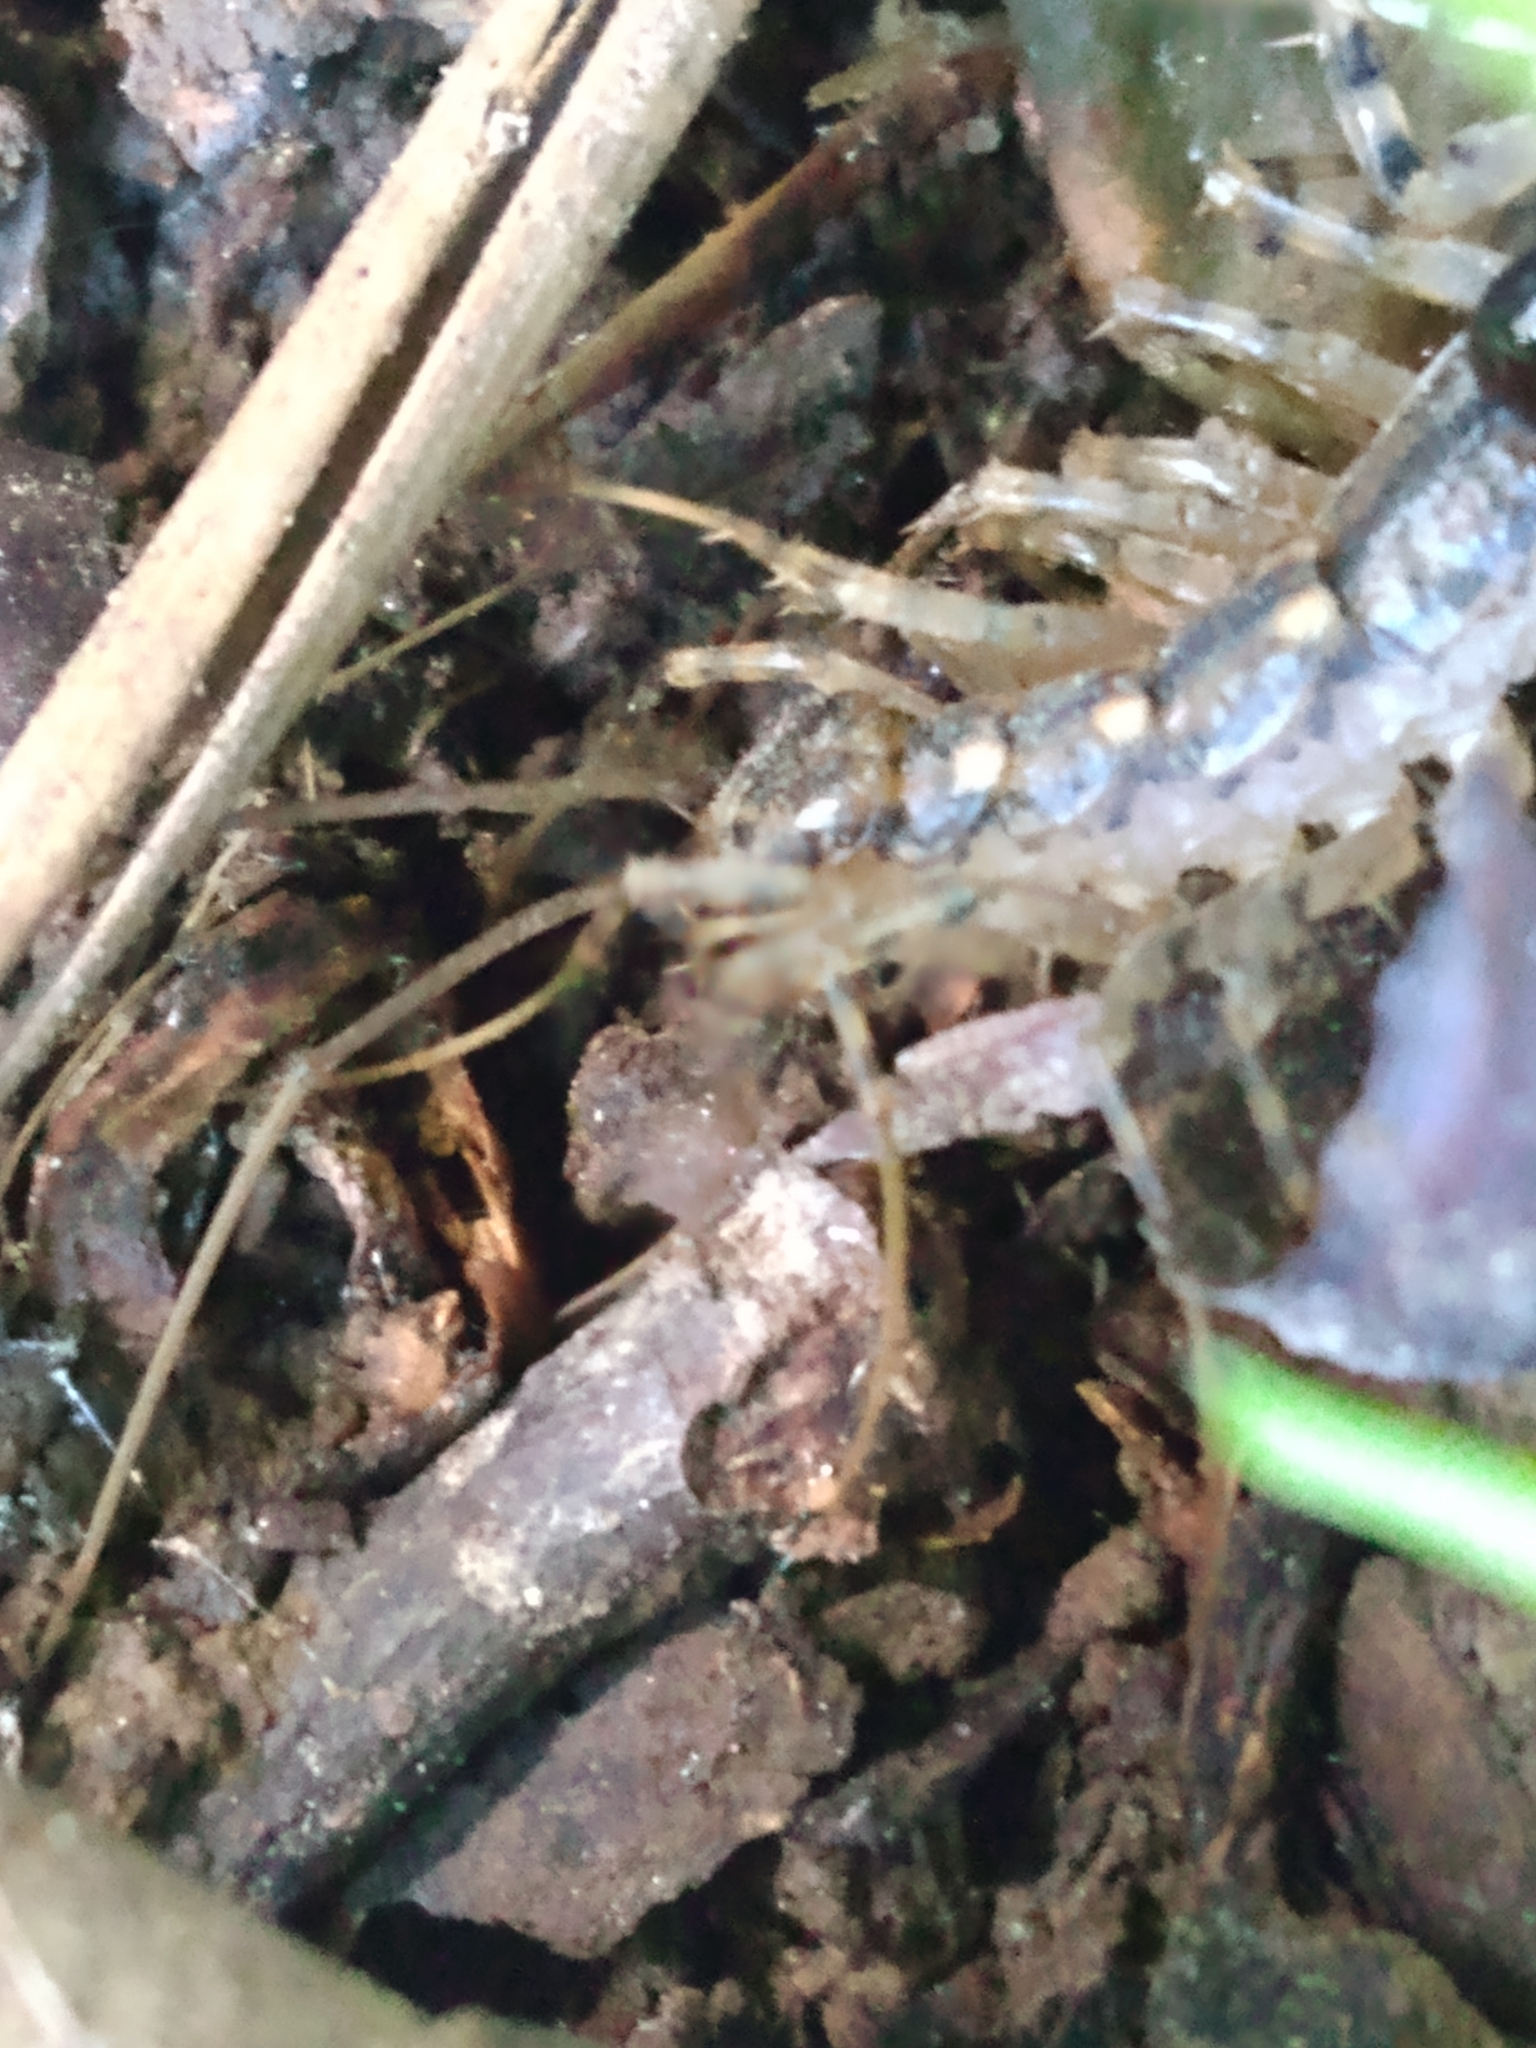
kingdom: Animalia
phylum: Arthropoda
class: Chilopoda
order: Scutigeromorpha
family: Scutigeridae
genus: Thereuonema
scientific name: Thereuonema tuberculata
